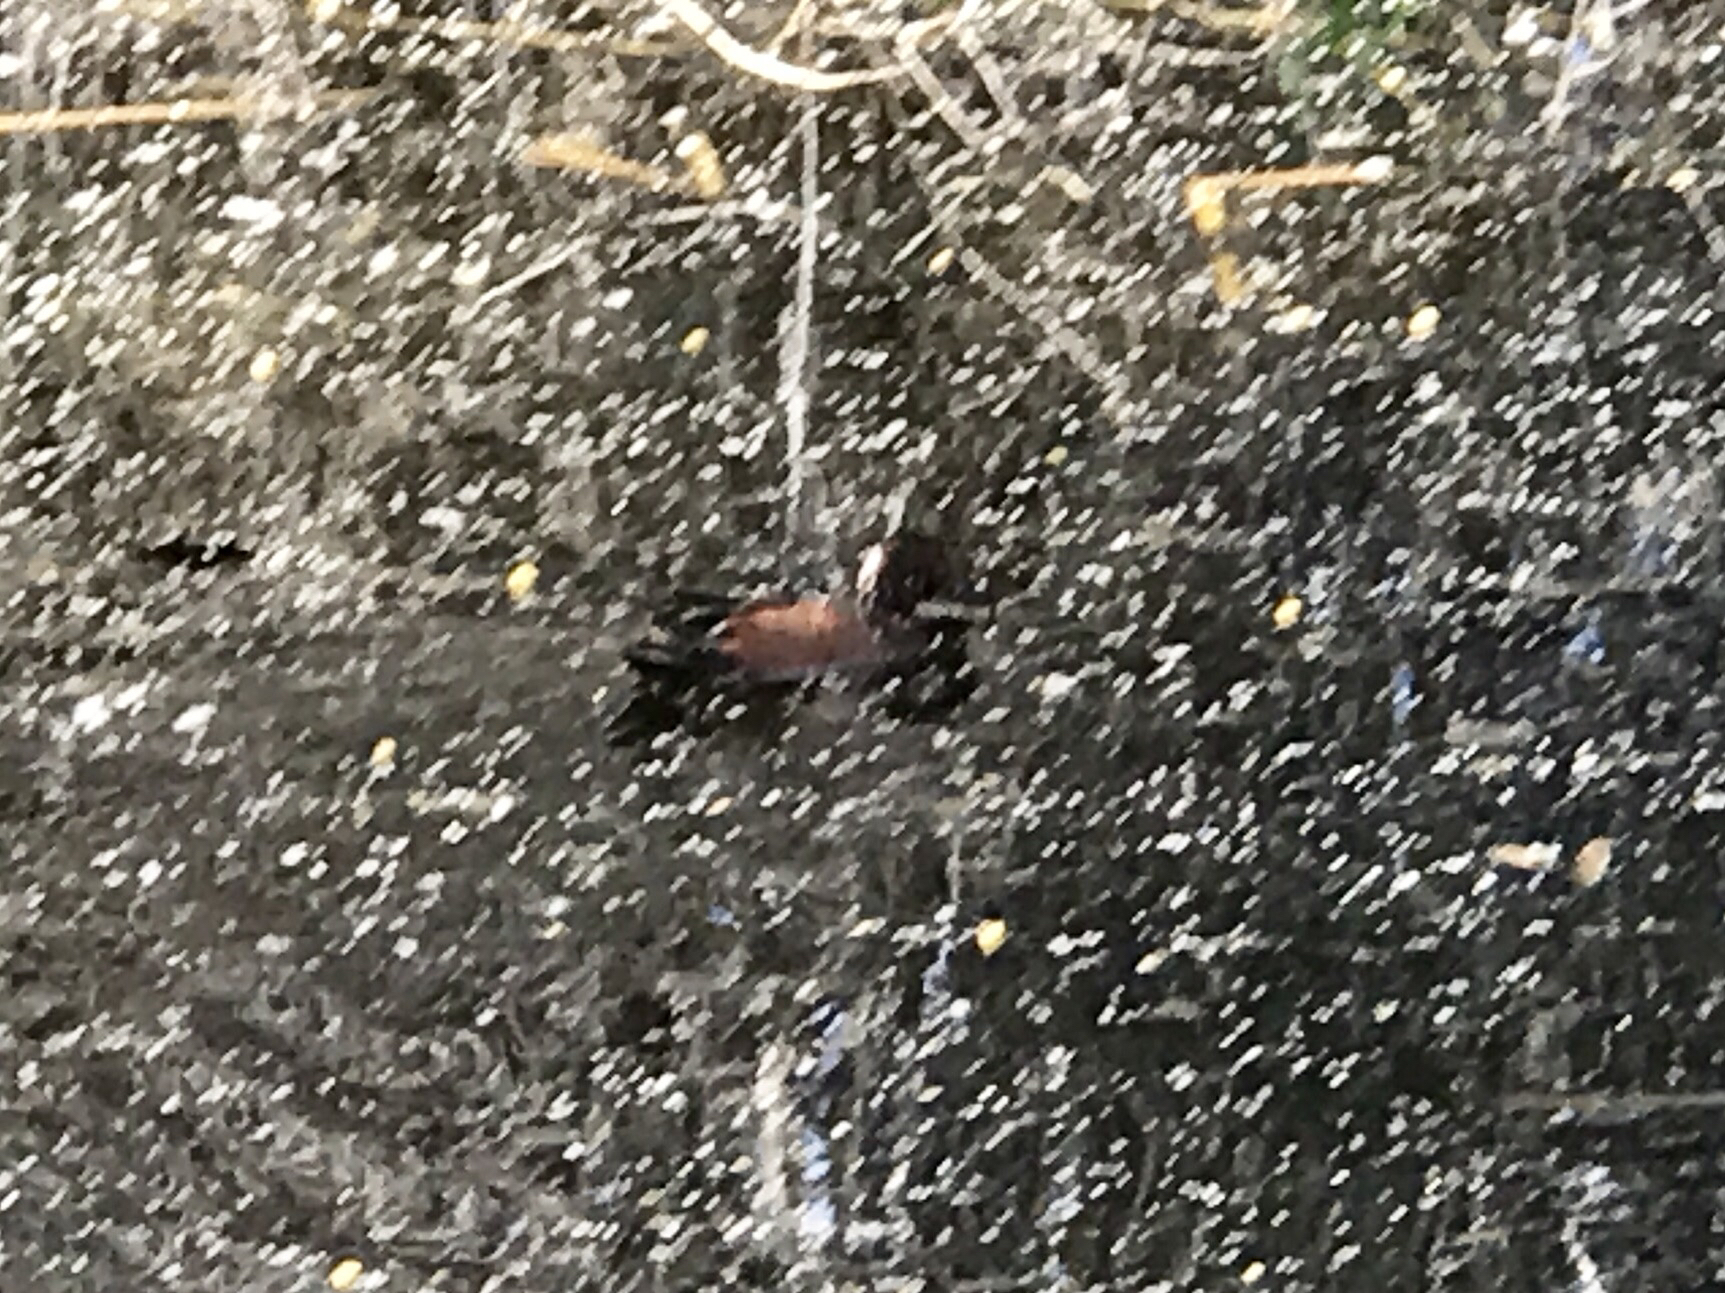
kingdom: Animalia
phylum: Chordata
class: Aves
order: Anseriformes
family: Anatidae
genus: Spatula
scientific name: Spatula cyanoptera
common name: Cinnamon teal
